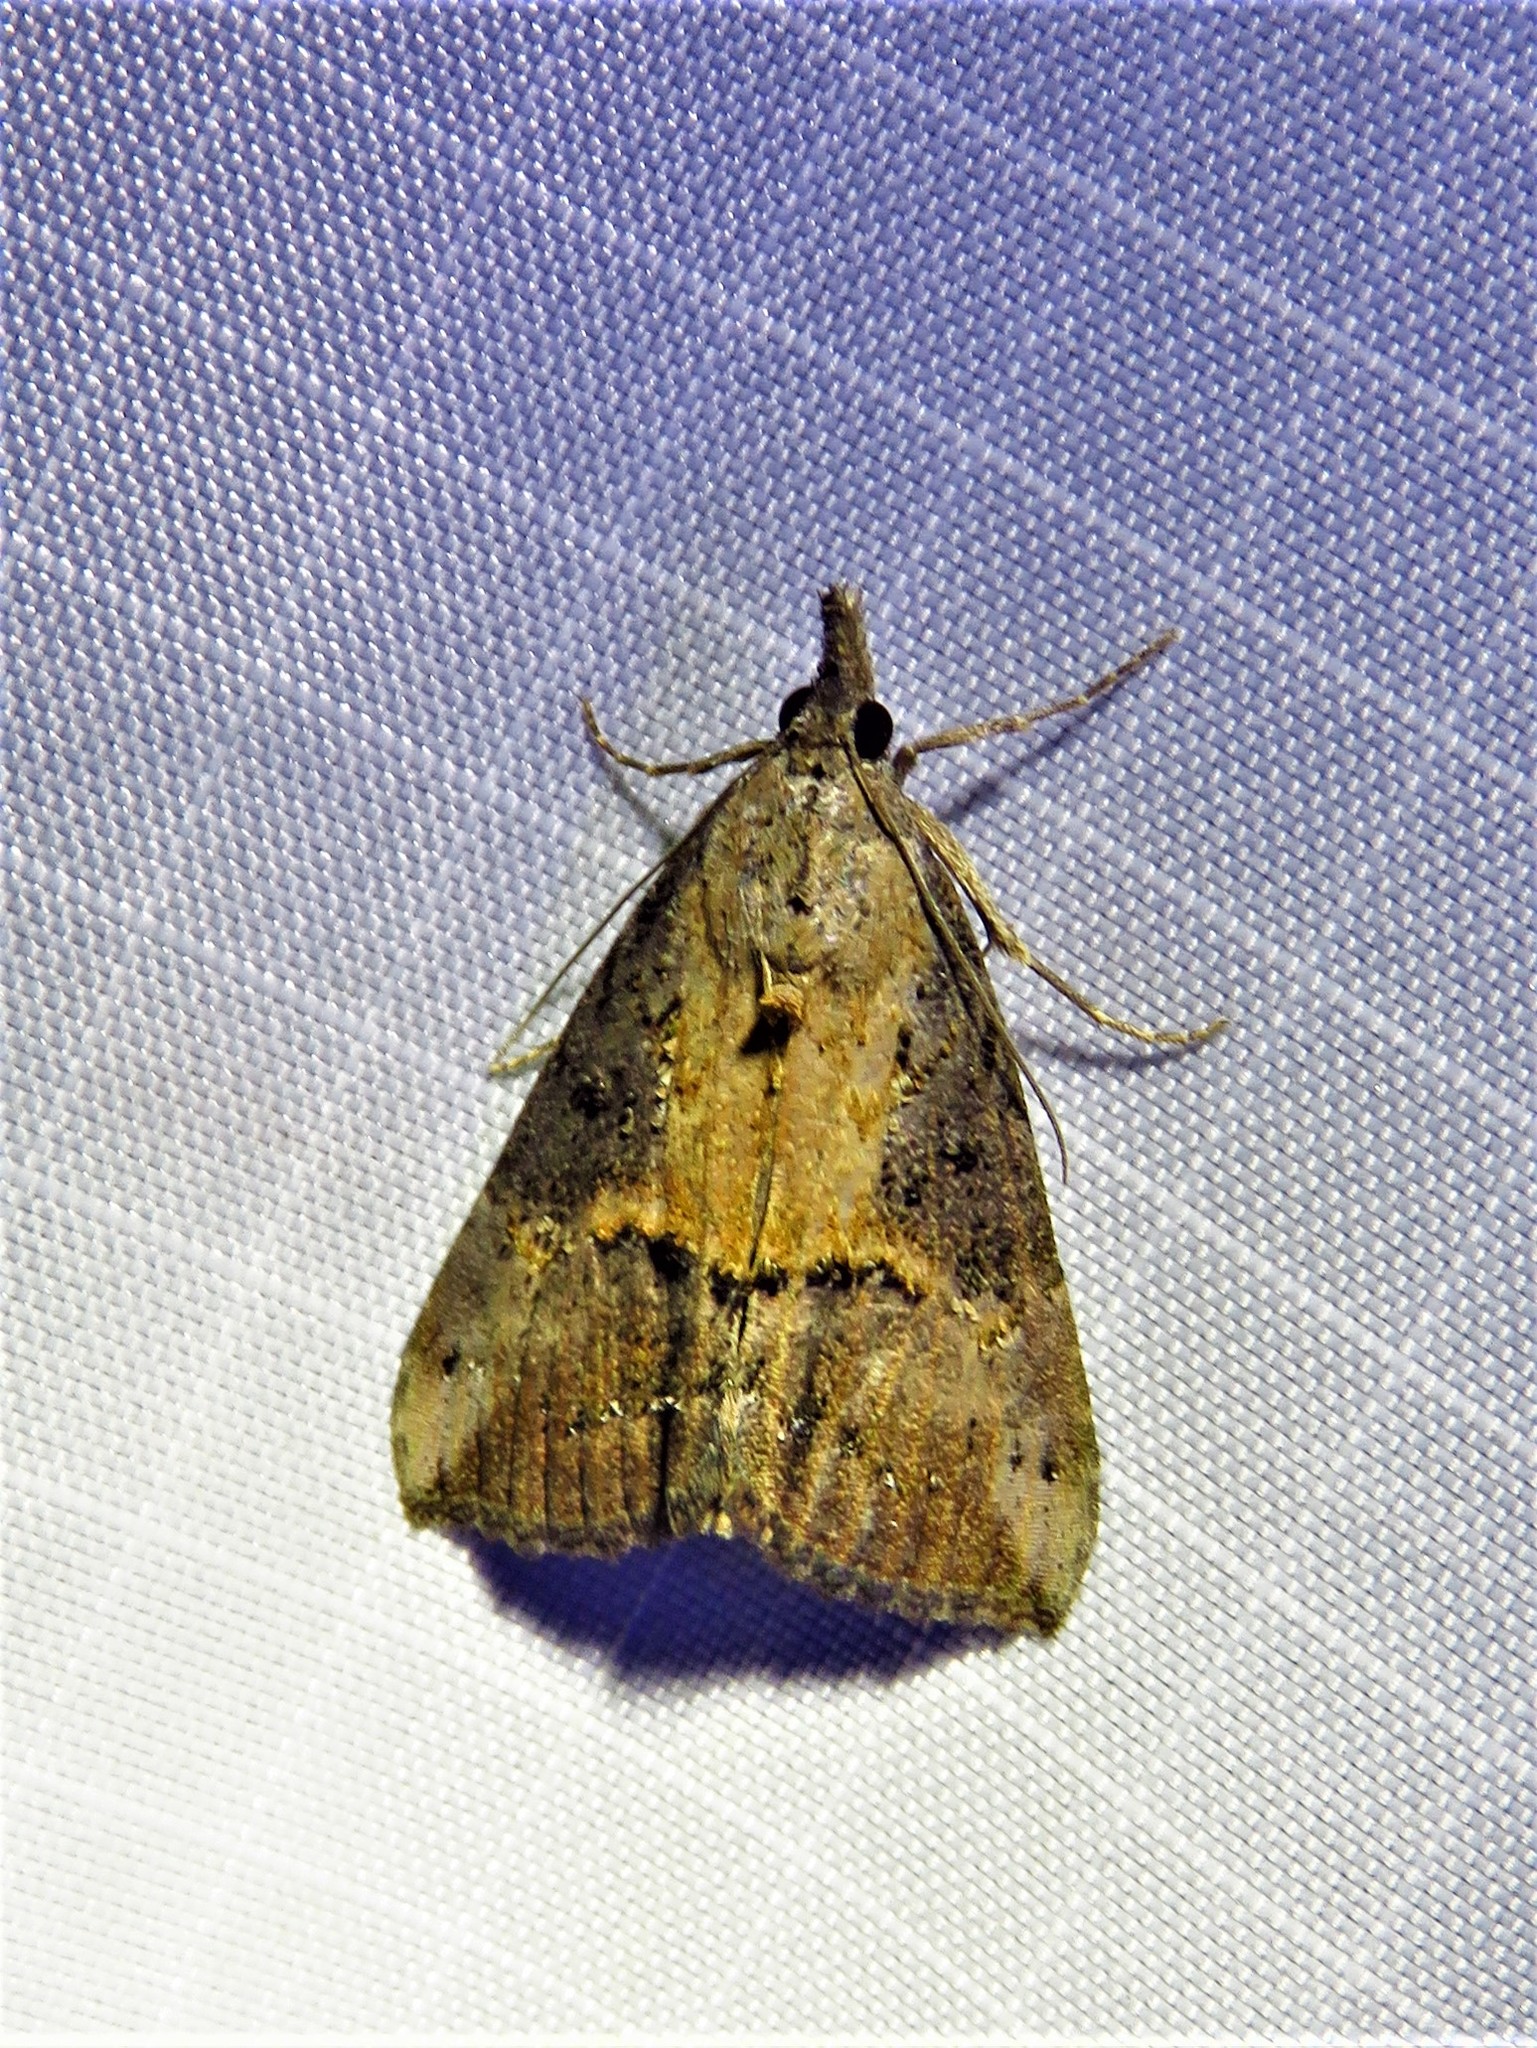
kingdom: Animalia
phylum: Arthropoda
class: Insecta
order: Lepidoptera
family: Erebidae
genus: Hypena
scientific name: Hypena scabra
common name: Green cloverworm
